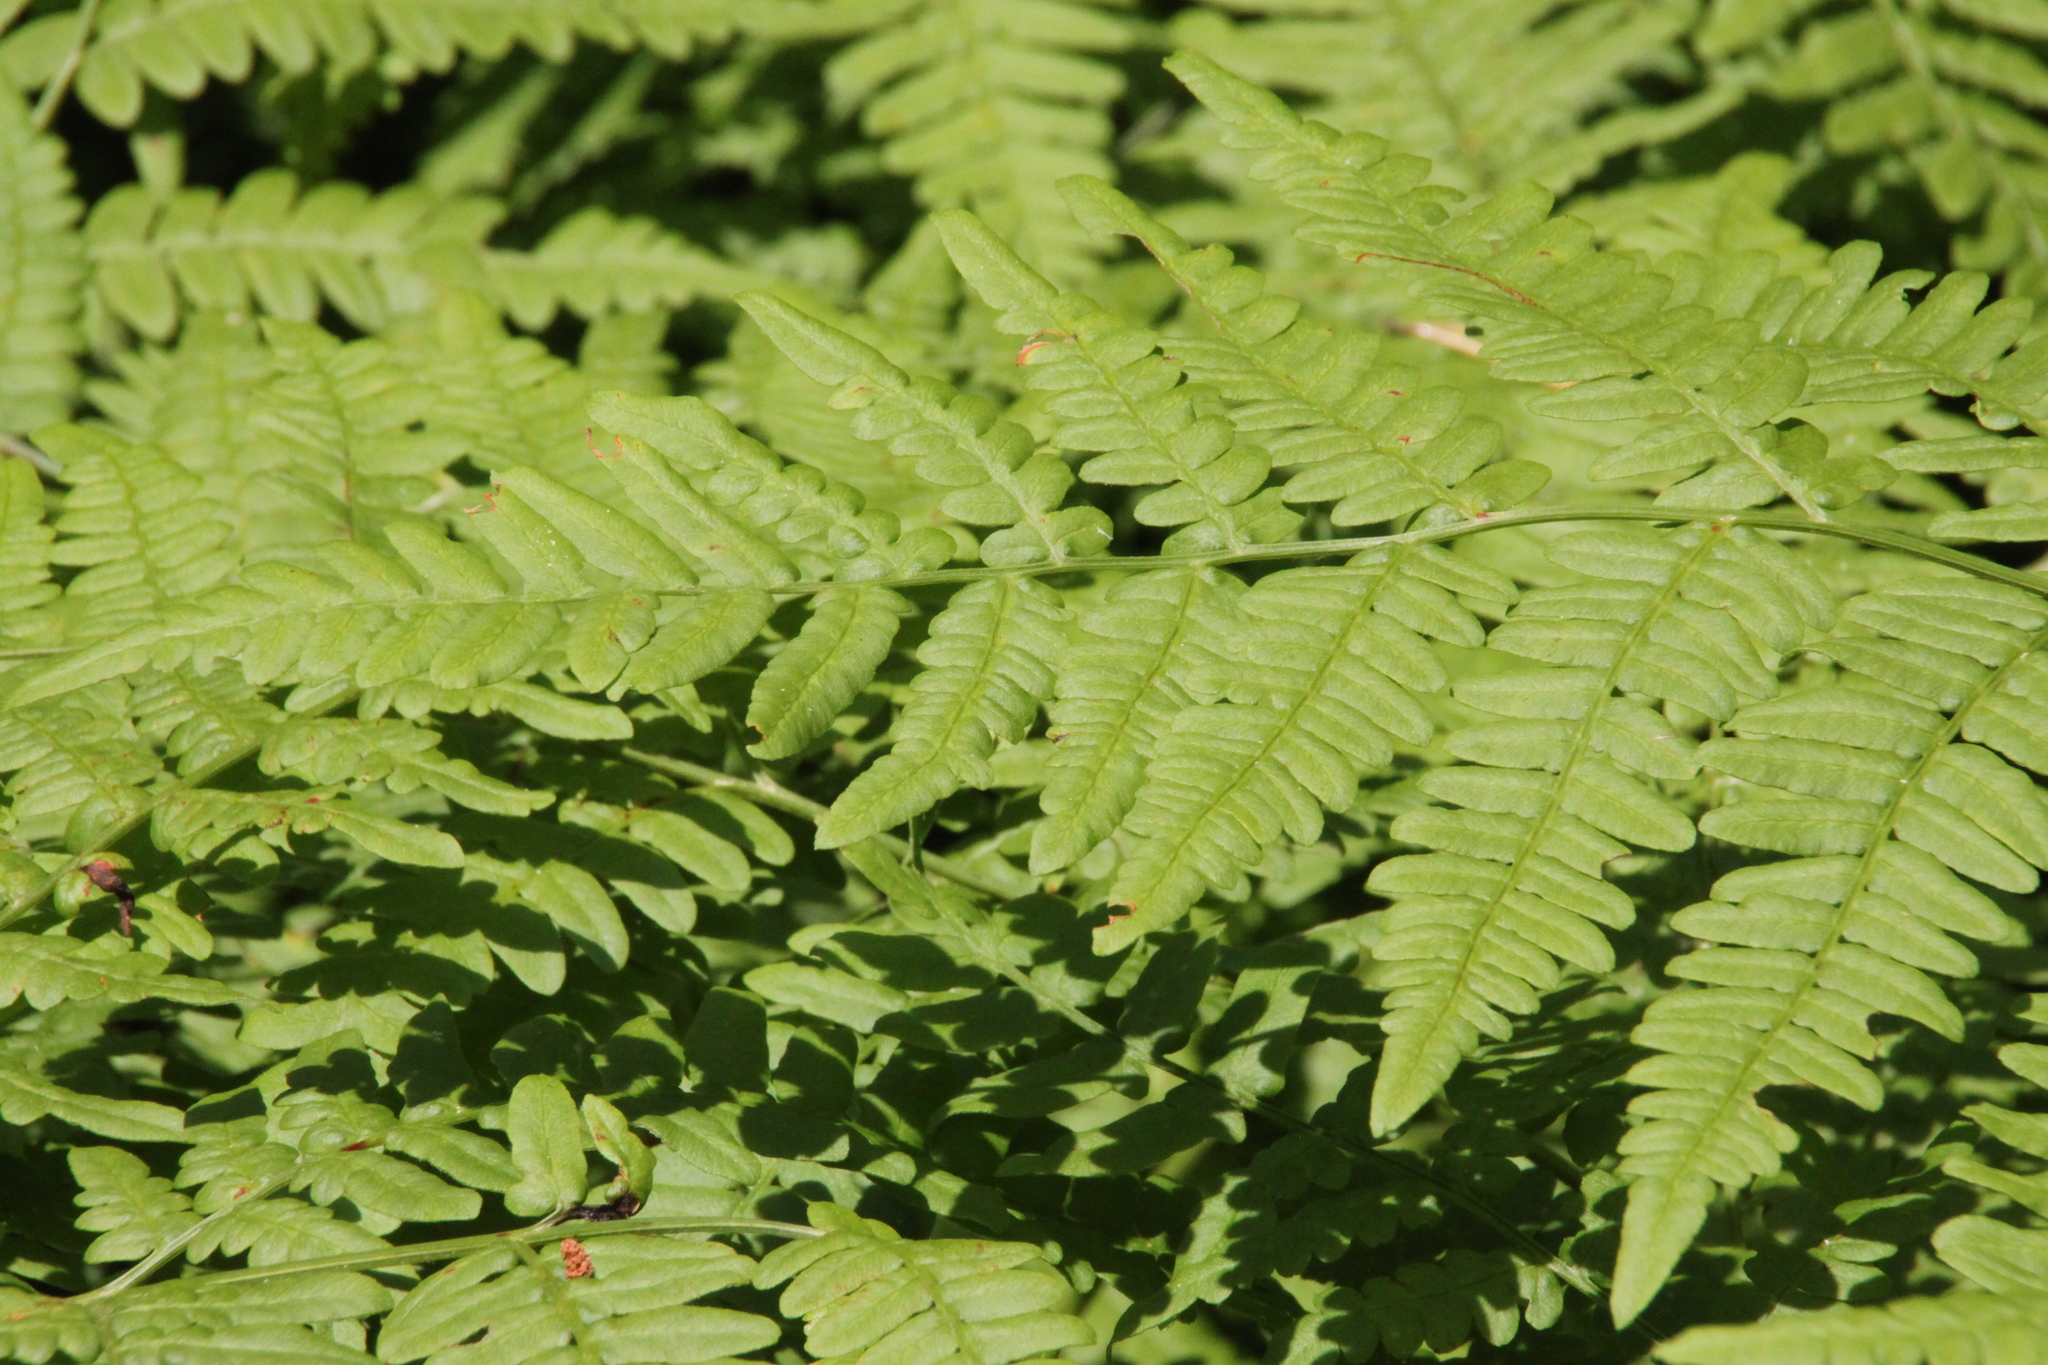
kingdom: Plantae
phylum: Tracheophyta
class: Polypodiopsida
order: Polypodiales
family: Dennstaedtiaceae
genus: Pteridium
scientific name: Pteridium aquilinum
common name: Bracken
